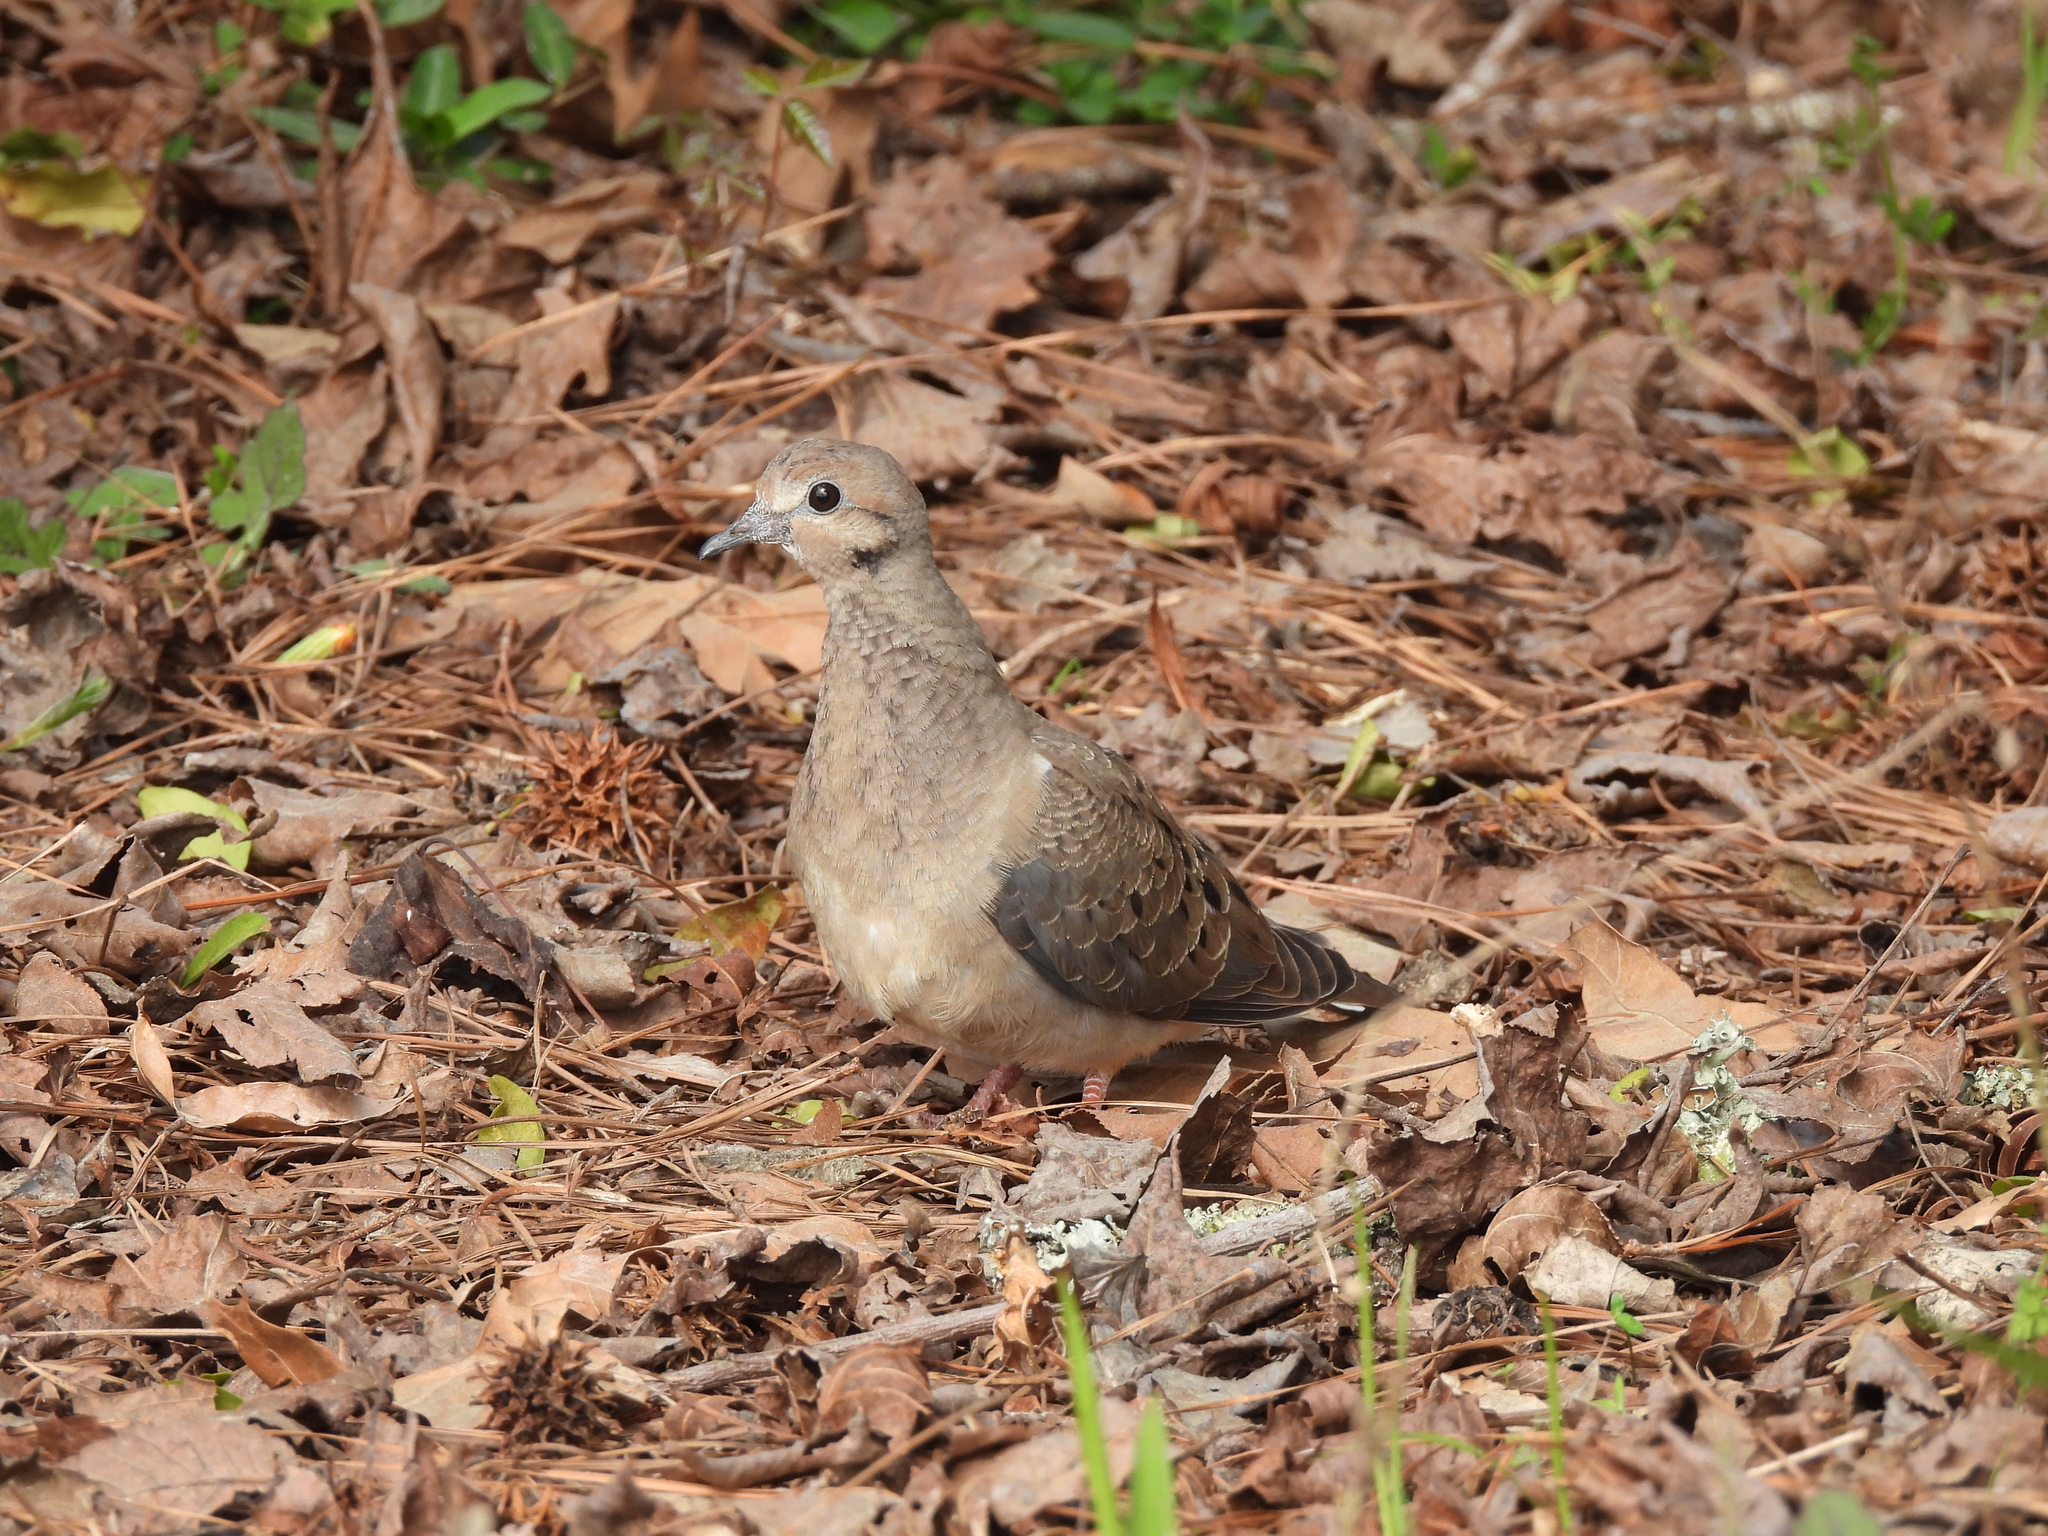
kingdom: Animalia
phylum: Chordata
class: Aves
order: Columbiformes
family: Columbidae
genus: Zenaida
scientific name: Zenaida macroura
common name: Mourning dove
